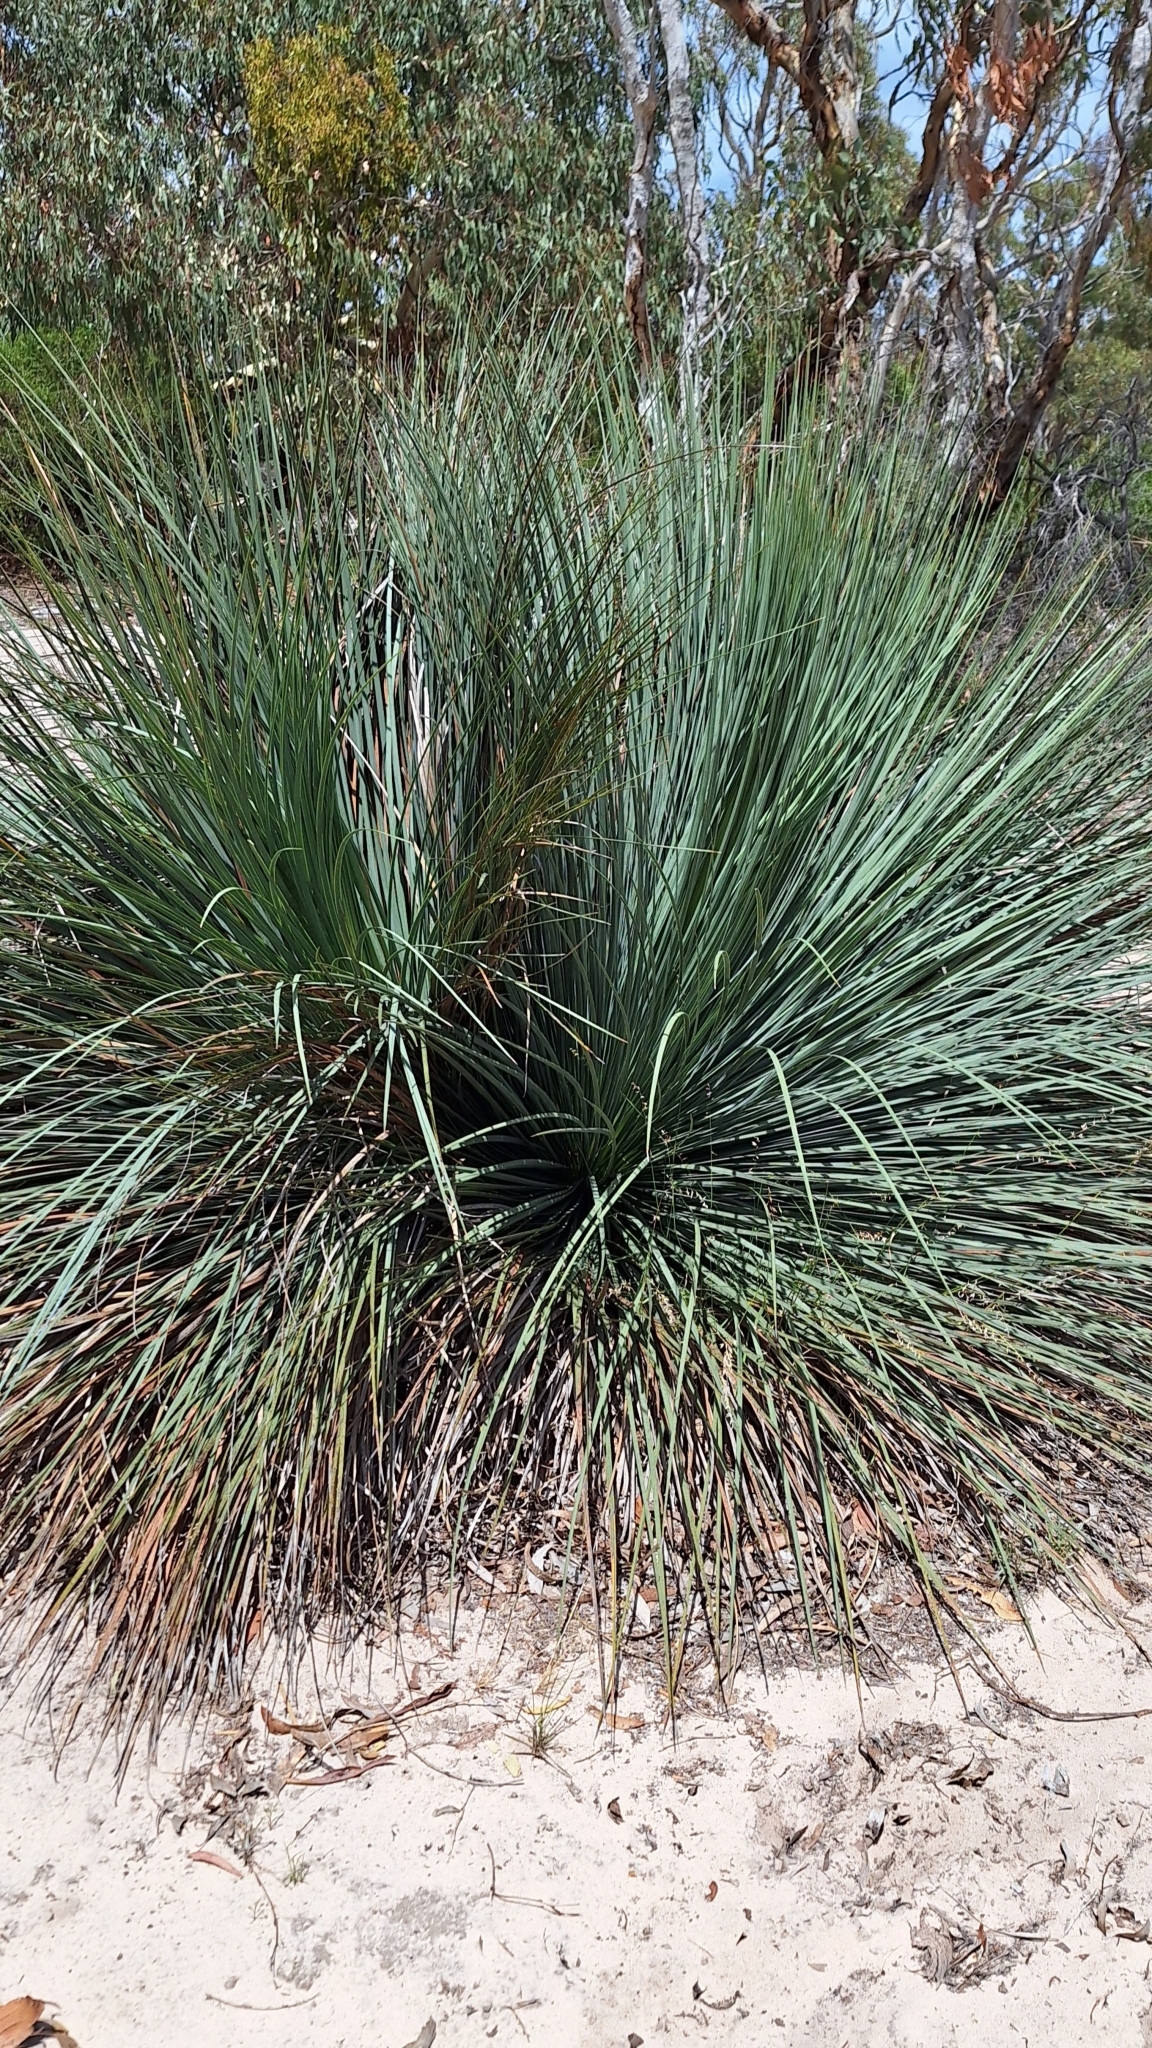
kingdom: Plantae
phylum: Tracheophyta
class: Liliopsida
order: Asparagales
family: Asphodelaceae
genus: Xanthorrhoea
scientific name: Xanthorrhoea semiplana
